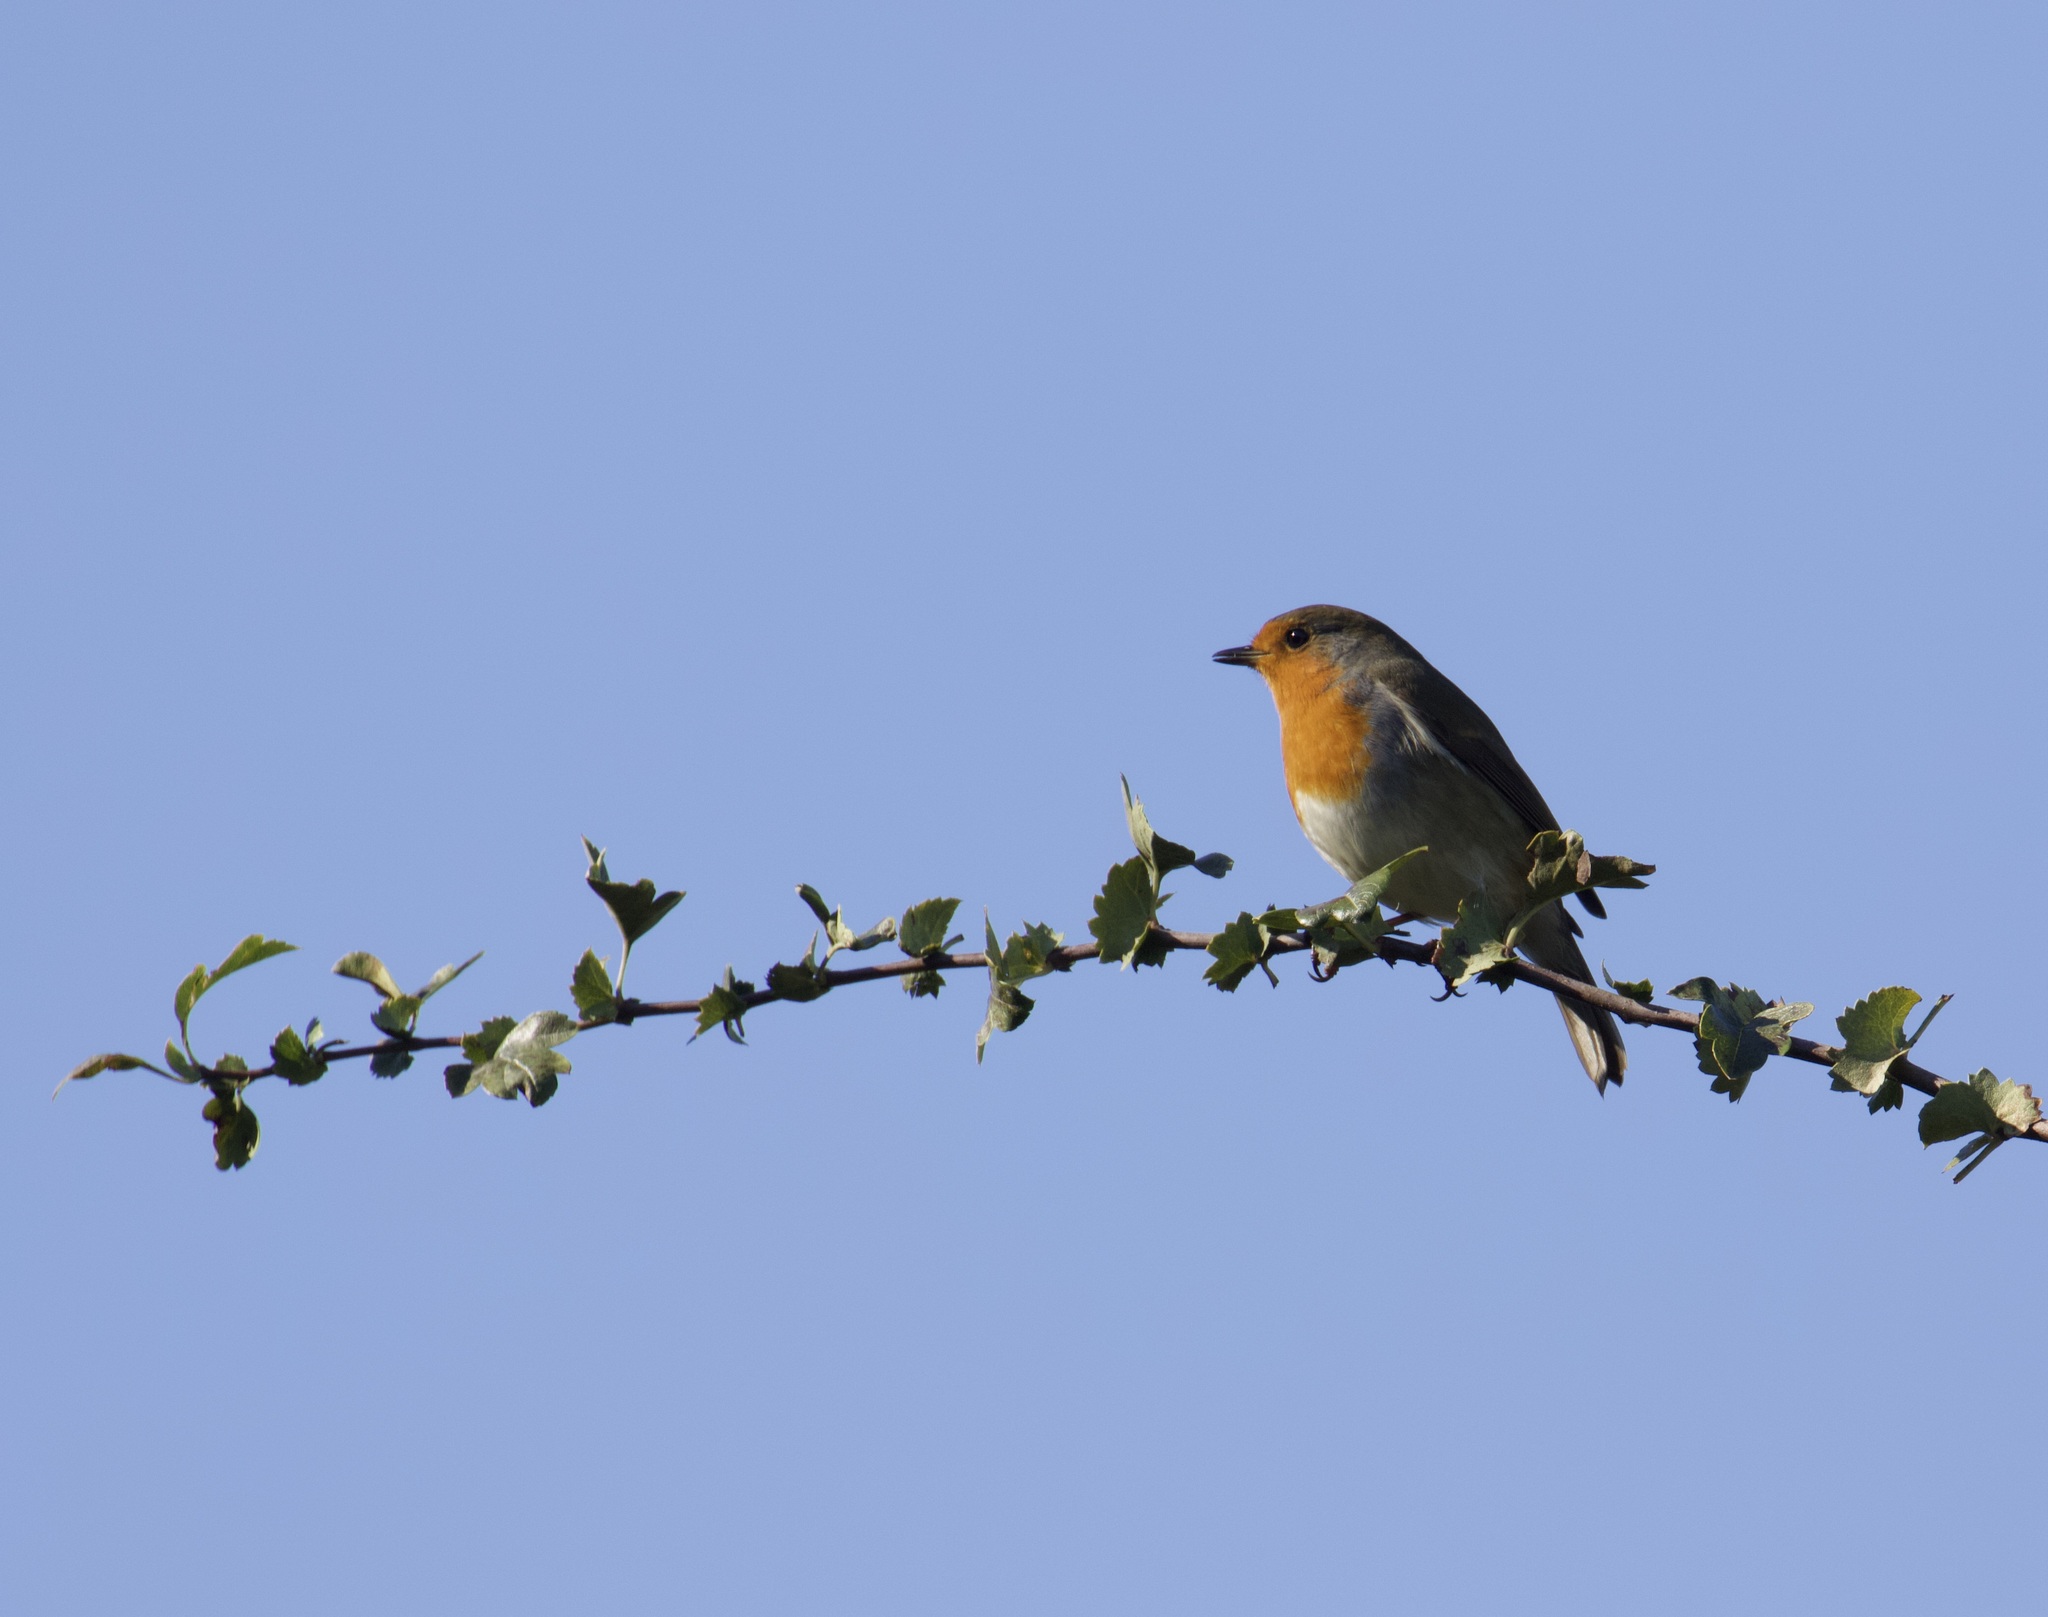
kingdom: Animalia
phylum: Chordata
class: Aves
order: Passeriformes
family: Muscicapidae
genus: Erithacus
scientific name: Erithacus rubecula
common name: European robin
